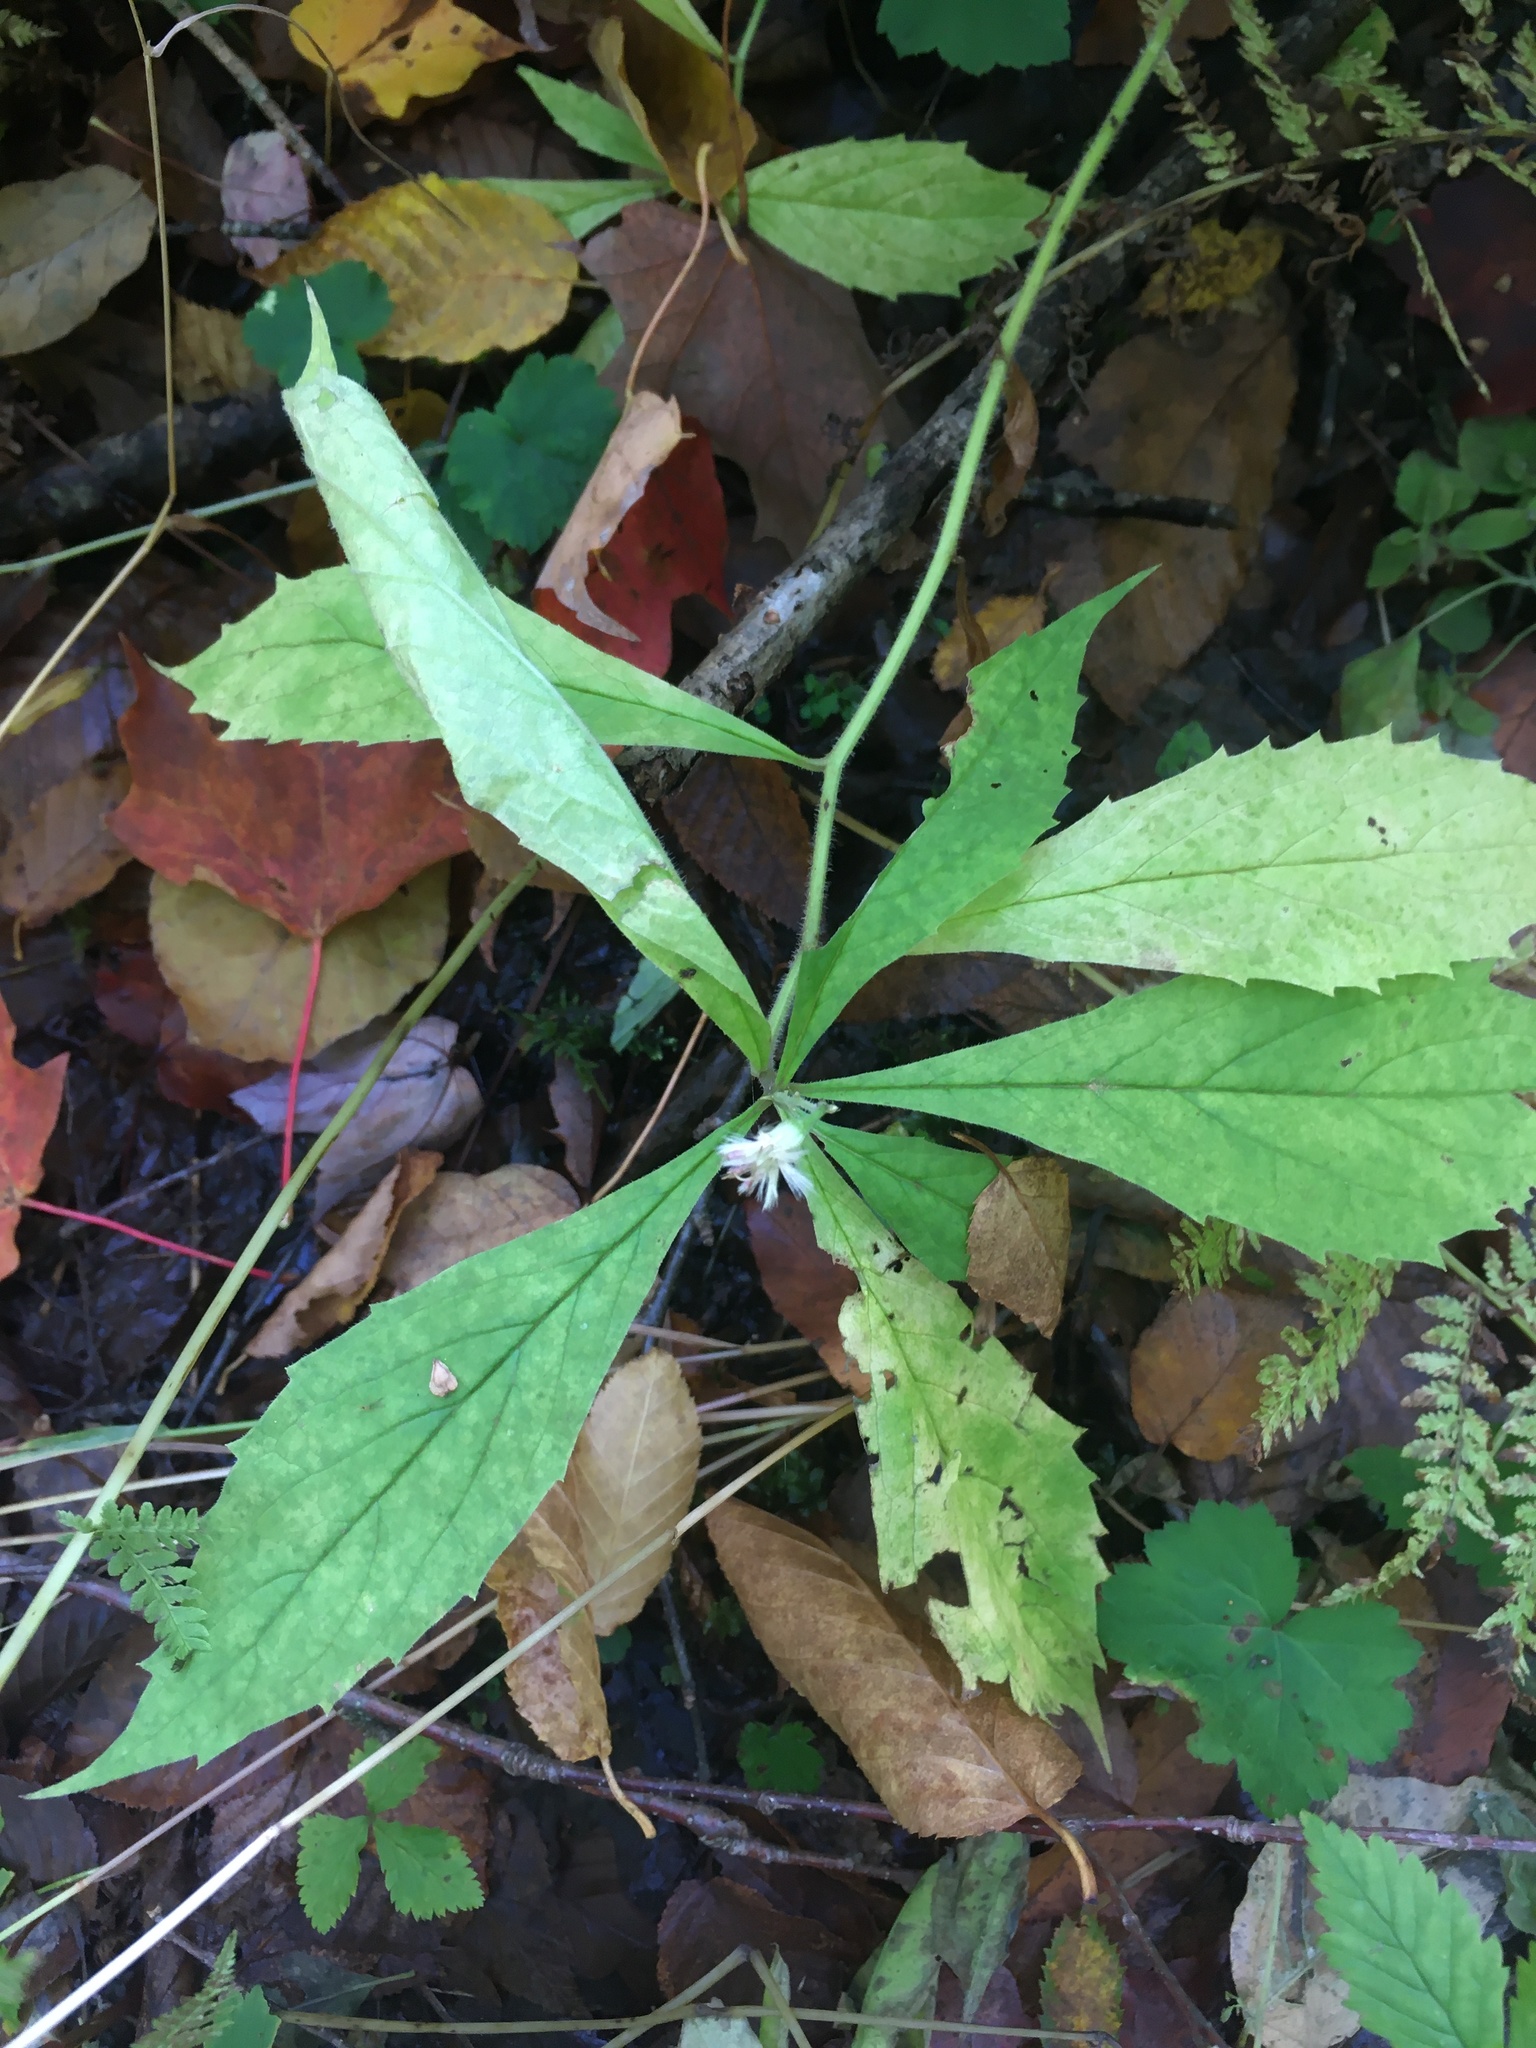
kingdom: Plantae
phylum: Tracheophyta
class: Magnoliopsida
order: Asterales
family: Asteraceae
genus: Oclemena
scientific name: Oclemena acuminata
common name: Mountain aster
